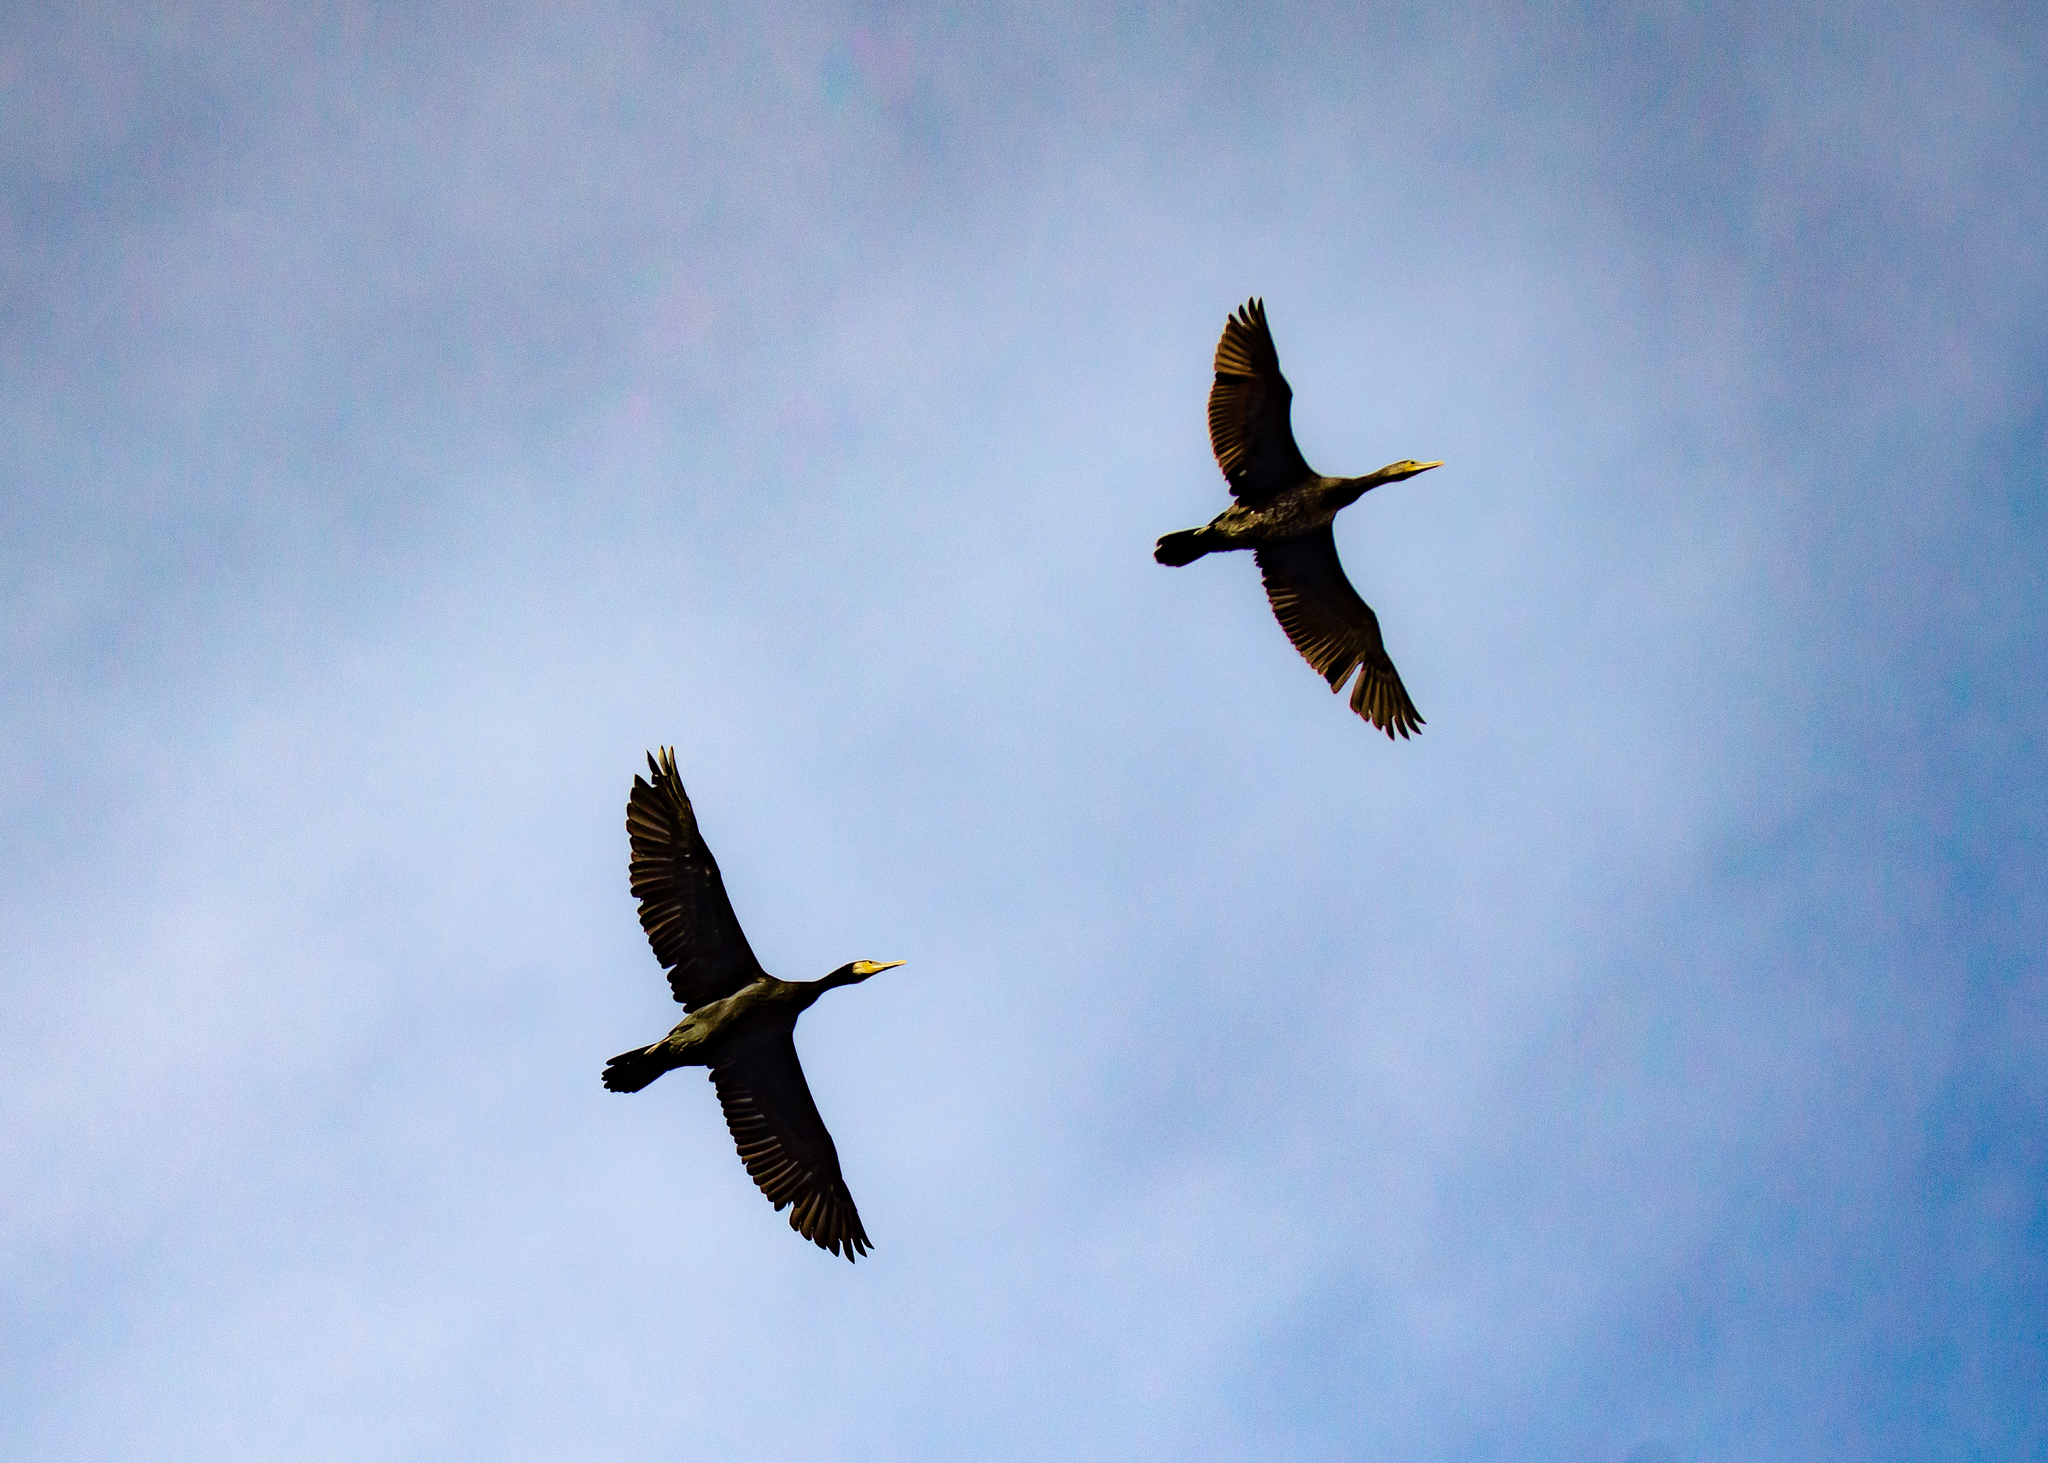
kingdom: Animalia
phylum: Chordata
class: Aves
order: Suliformes
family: Phalacrocoracidae
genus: Phalacrocorax
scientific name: Phalacrocorax carbo
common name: Great cormorant
